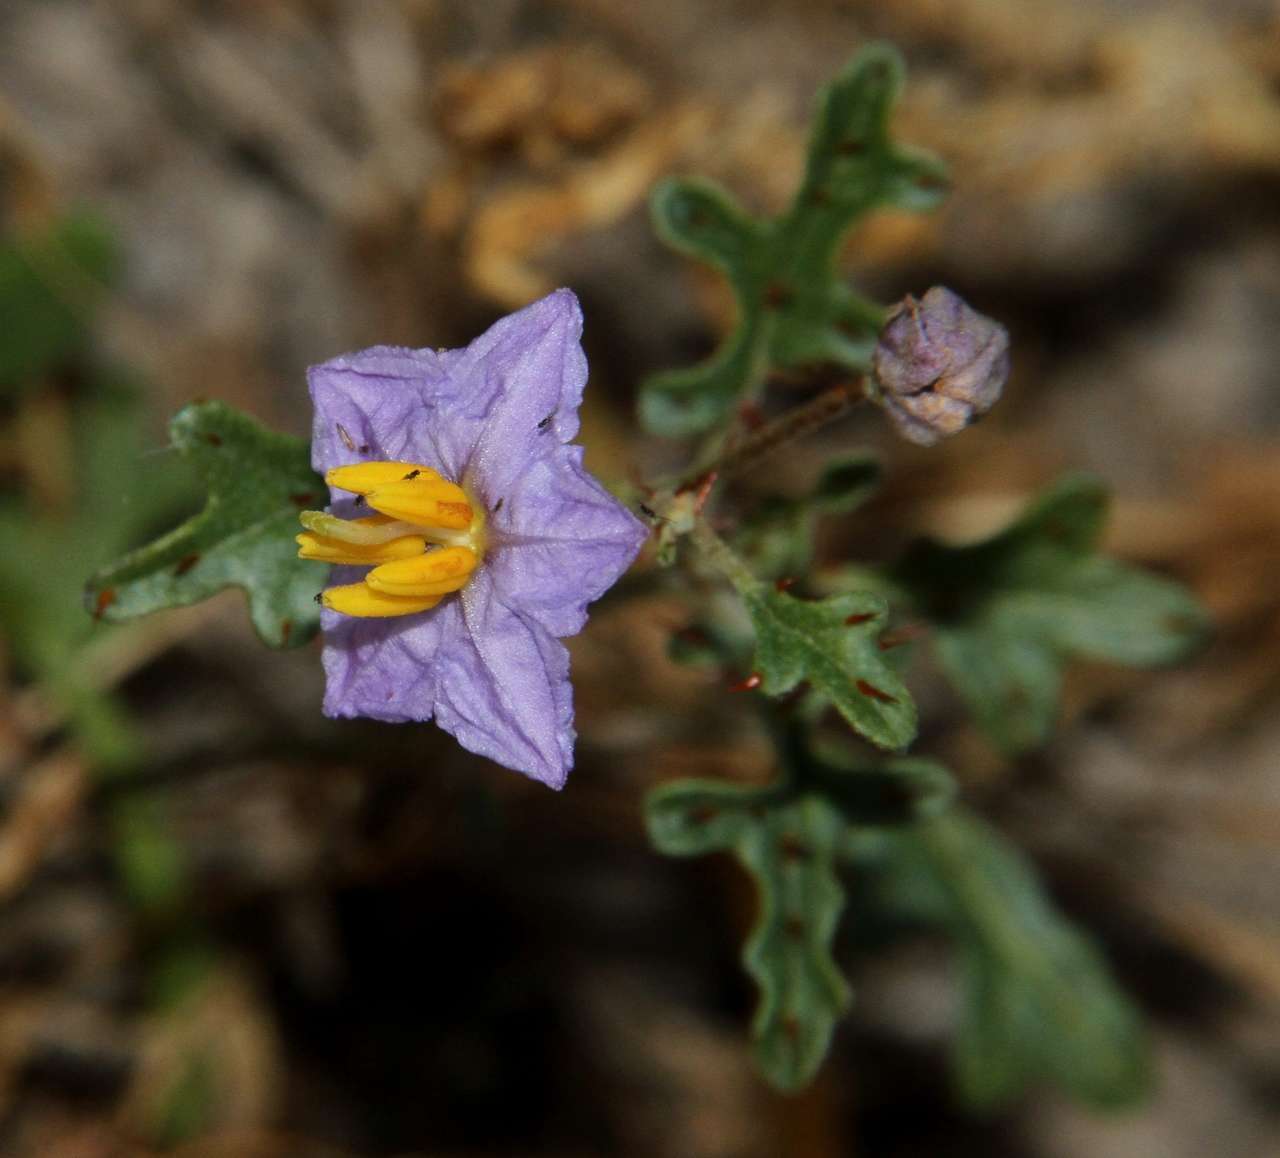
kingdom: Plantae
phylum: Tracheophyta
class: Magnoliopsida
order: Solanales
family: Solanaceae
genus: Solanum
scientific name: Solanum lacunarium
